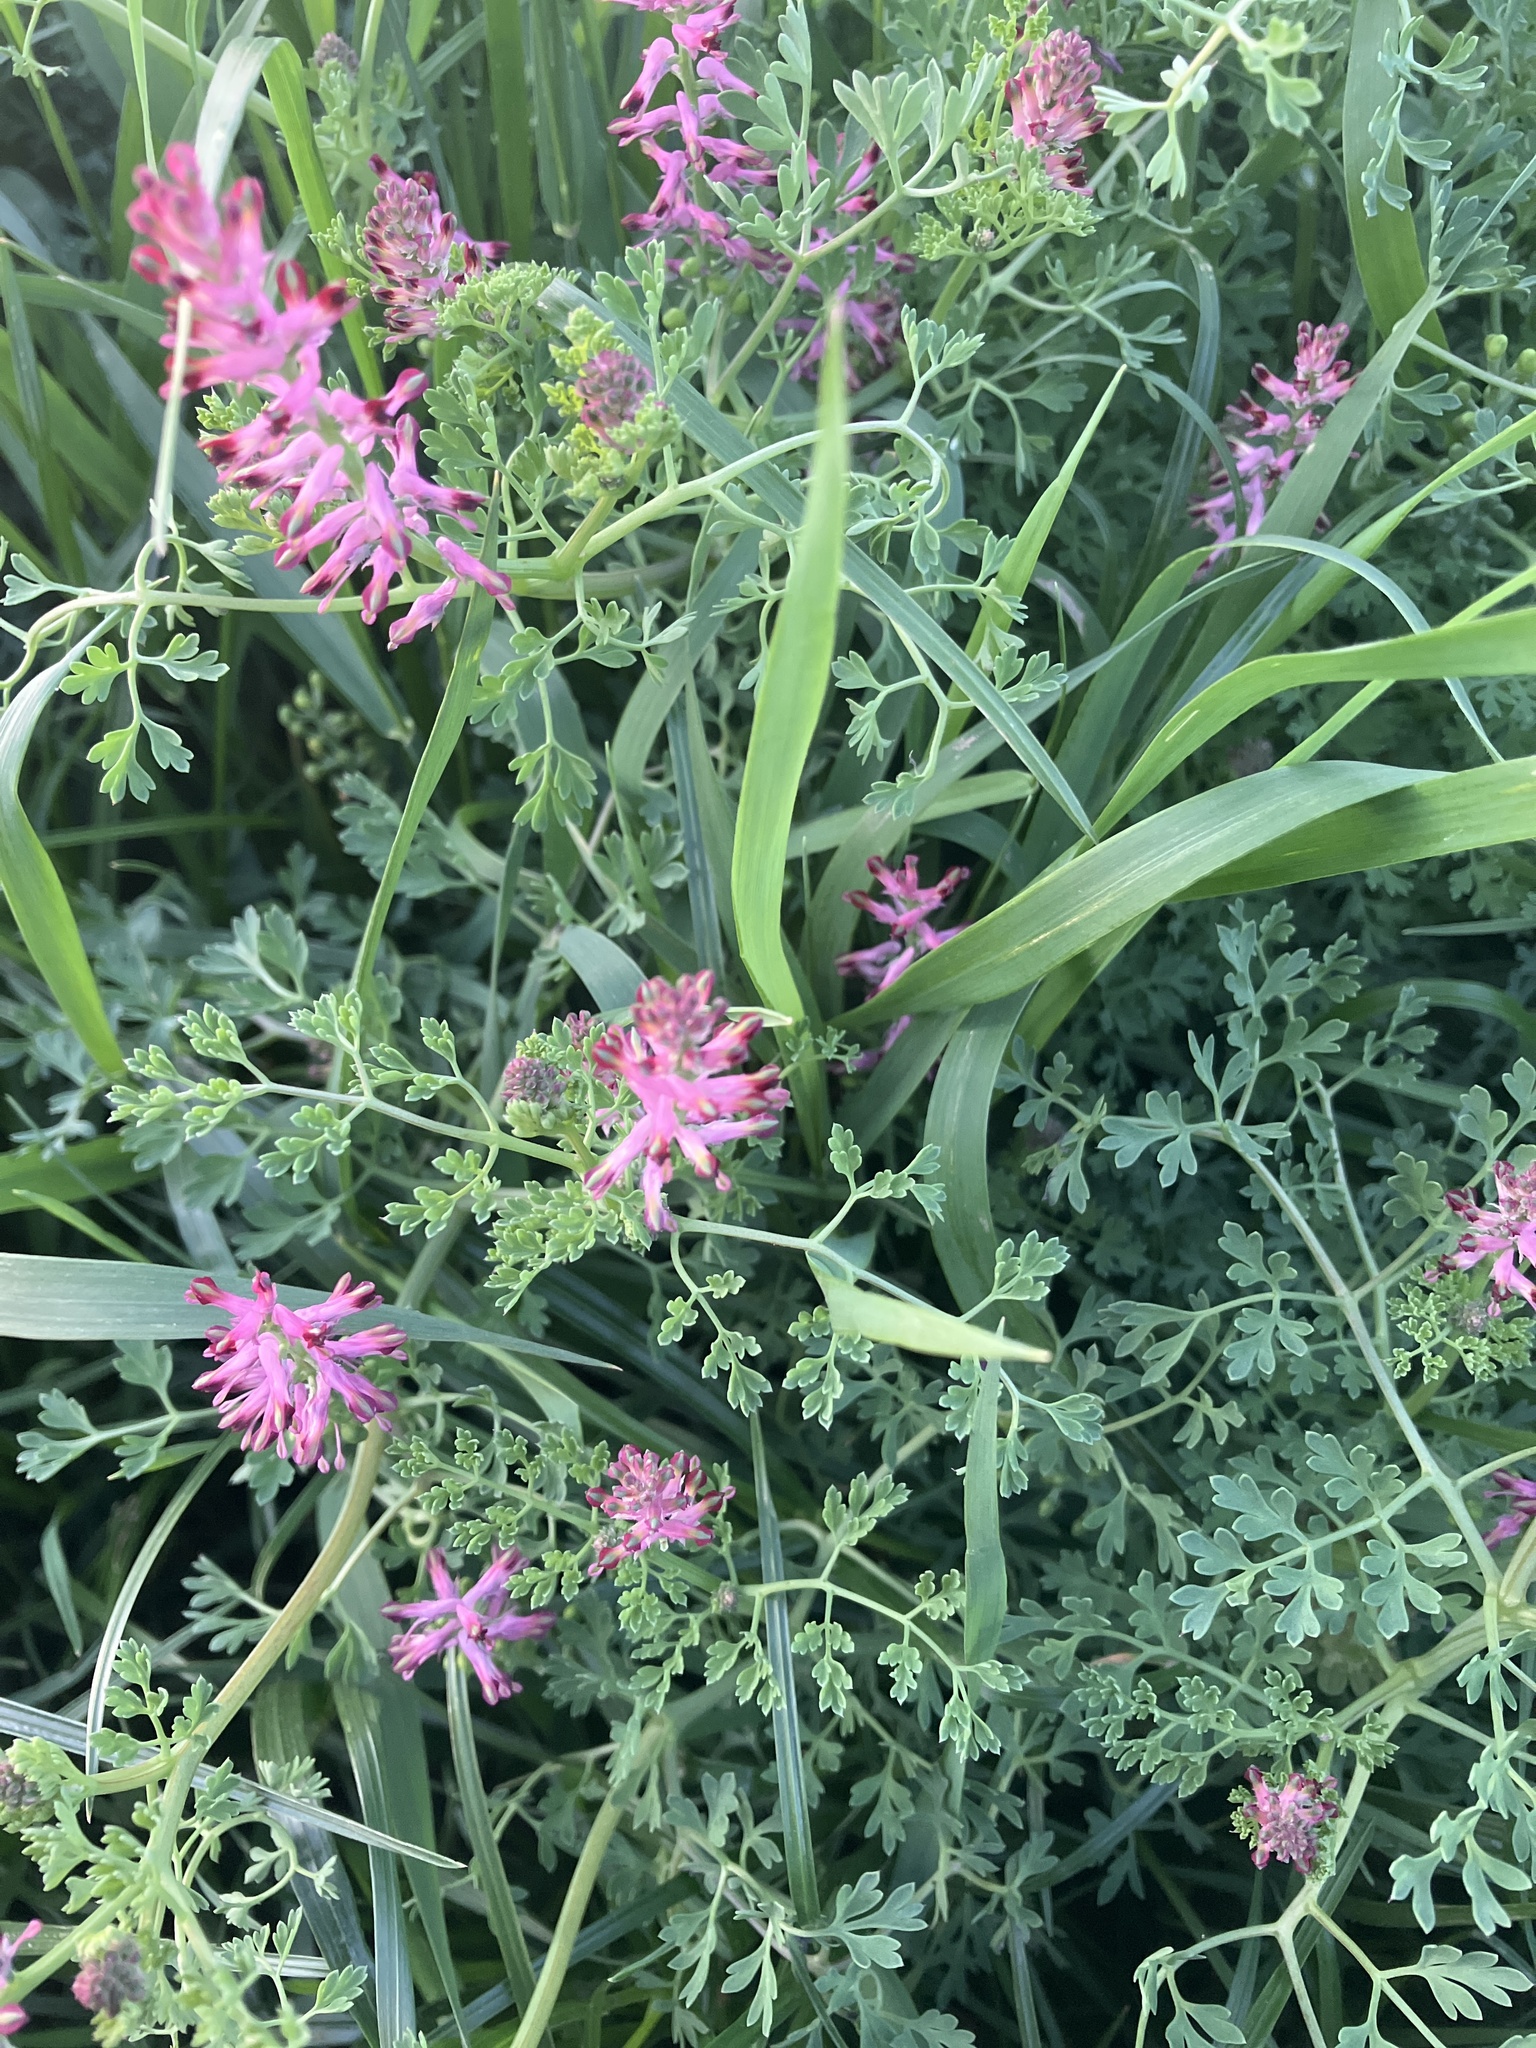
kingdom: Plantae
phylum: Tracheophyta
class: Magnoliopsida
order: Ranunculales
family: Papaveraceae
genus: Fumaria
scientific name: Fumaria officinalis
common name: Common fumitory
